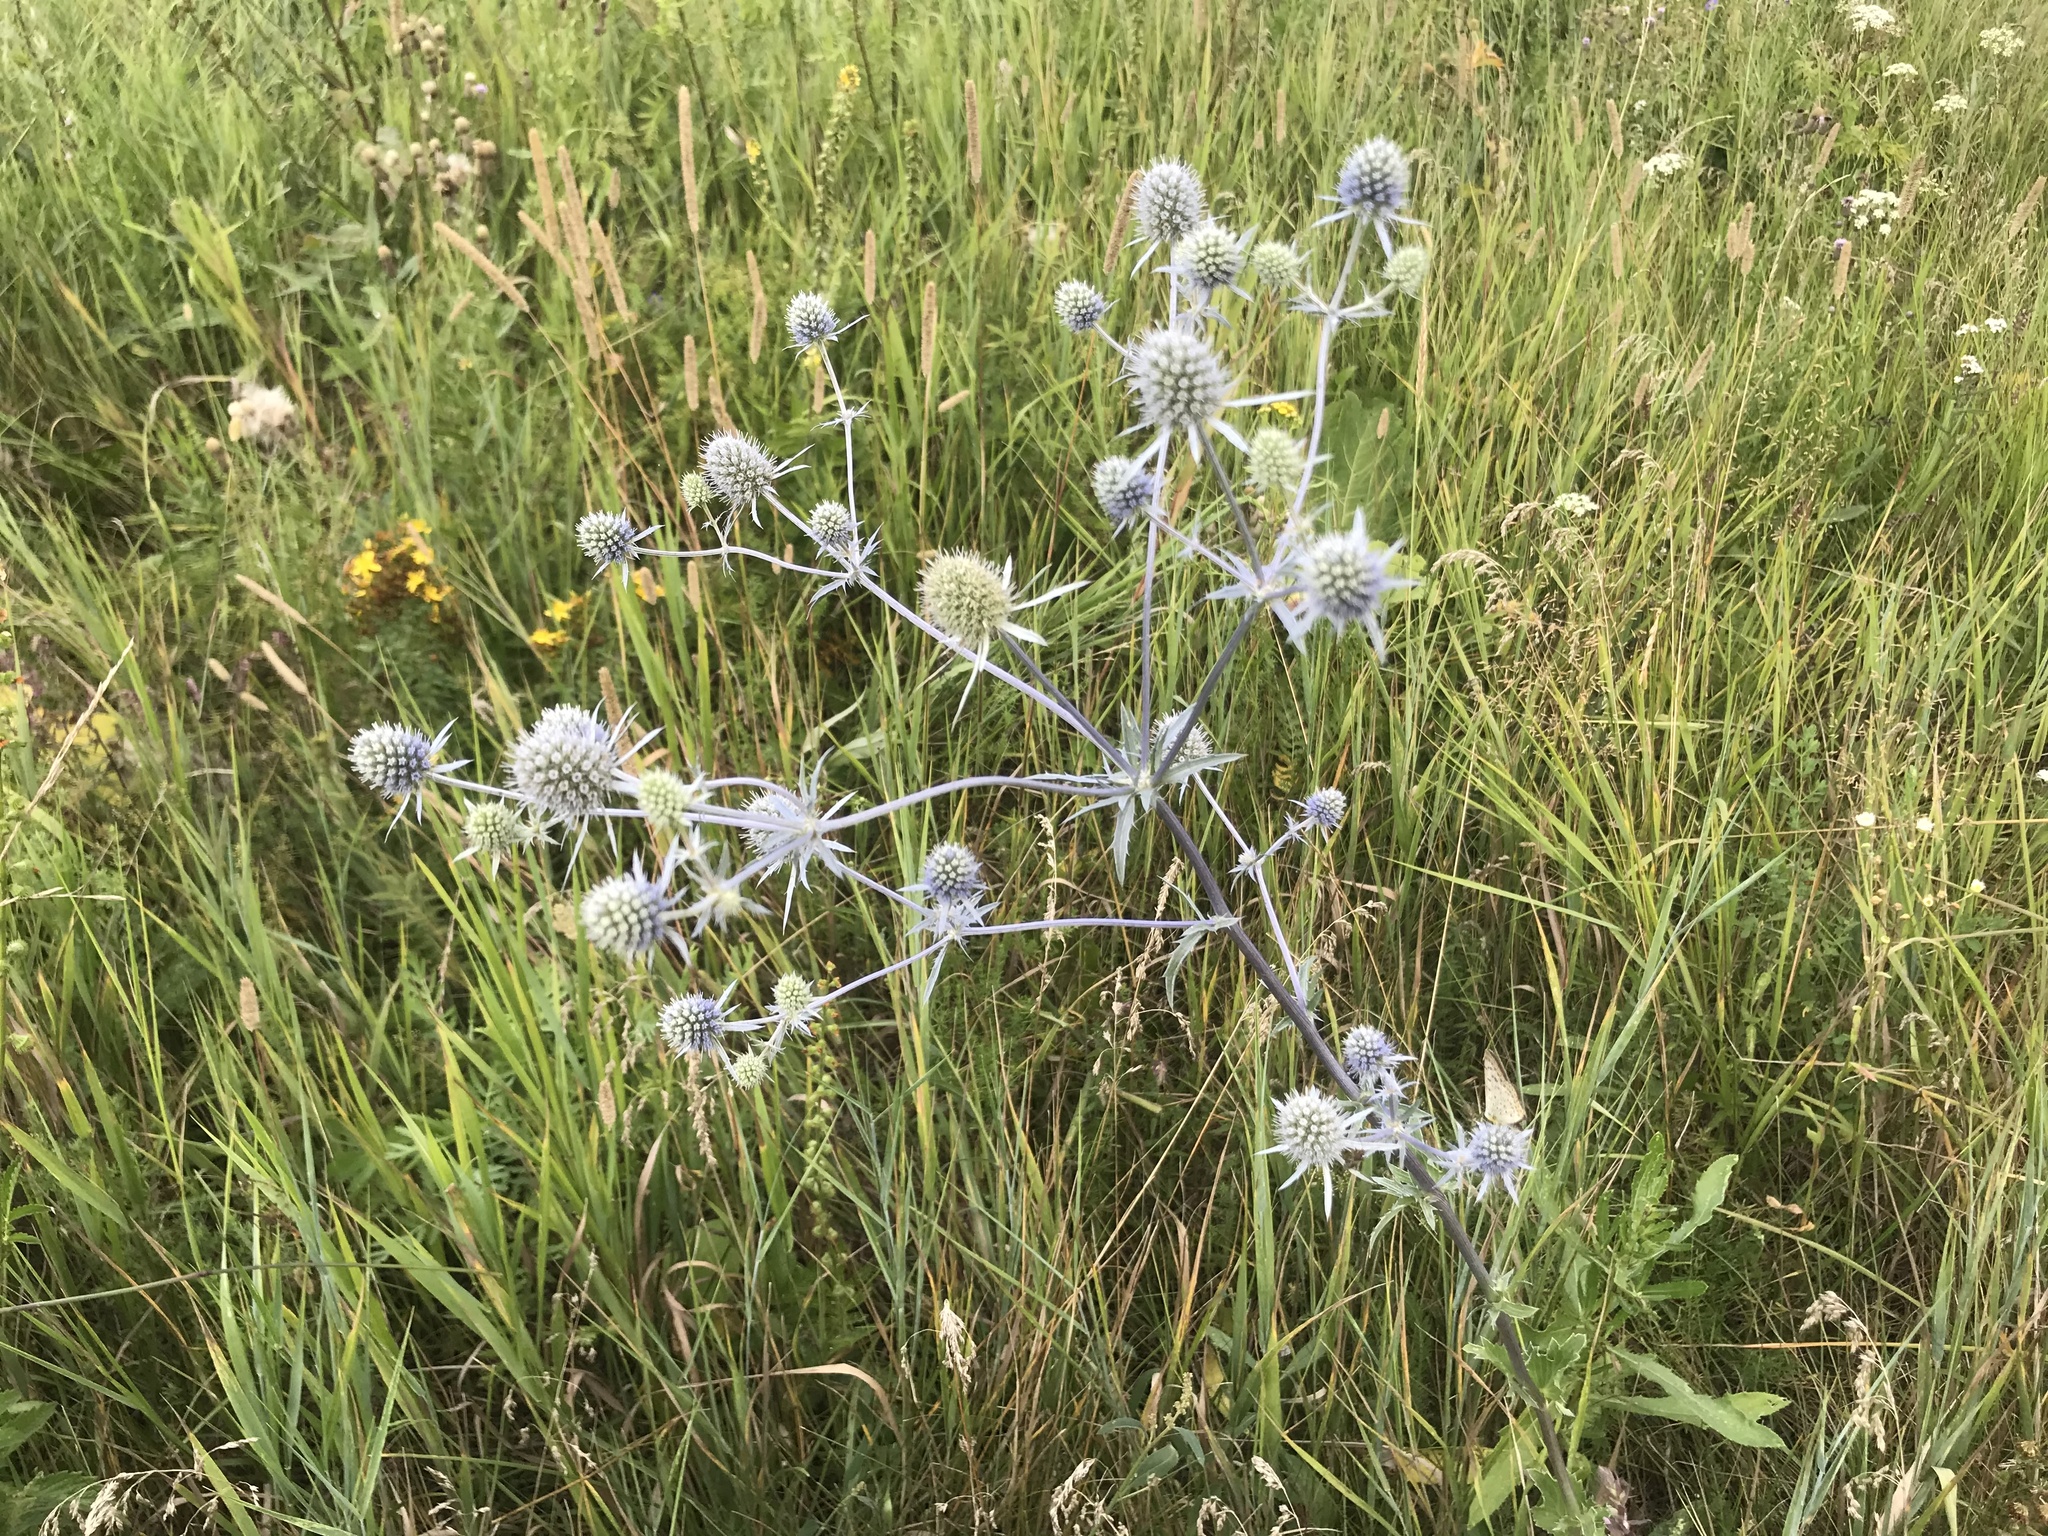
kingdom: Plantae
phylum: Tracheophyta
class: Magnoliopsida
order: Apiales
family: Apiaceae
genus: Eryngium
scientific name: Eryngium planum
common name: Blue eryngo
